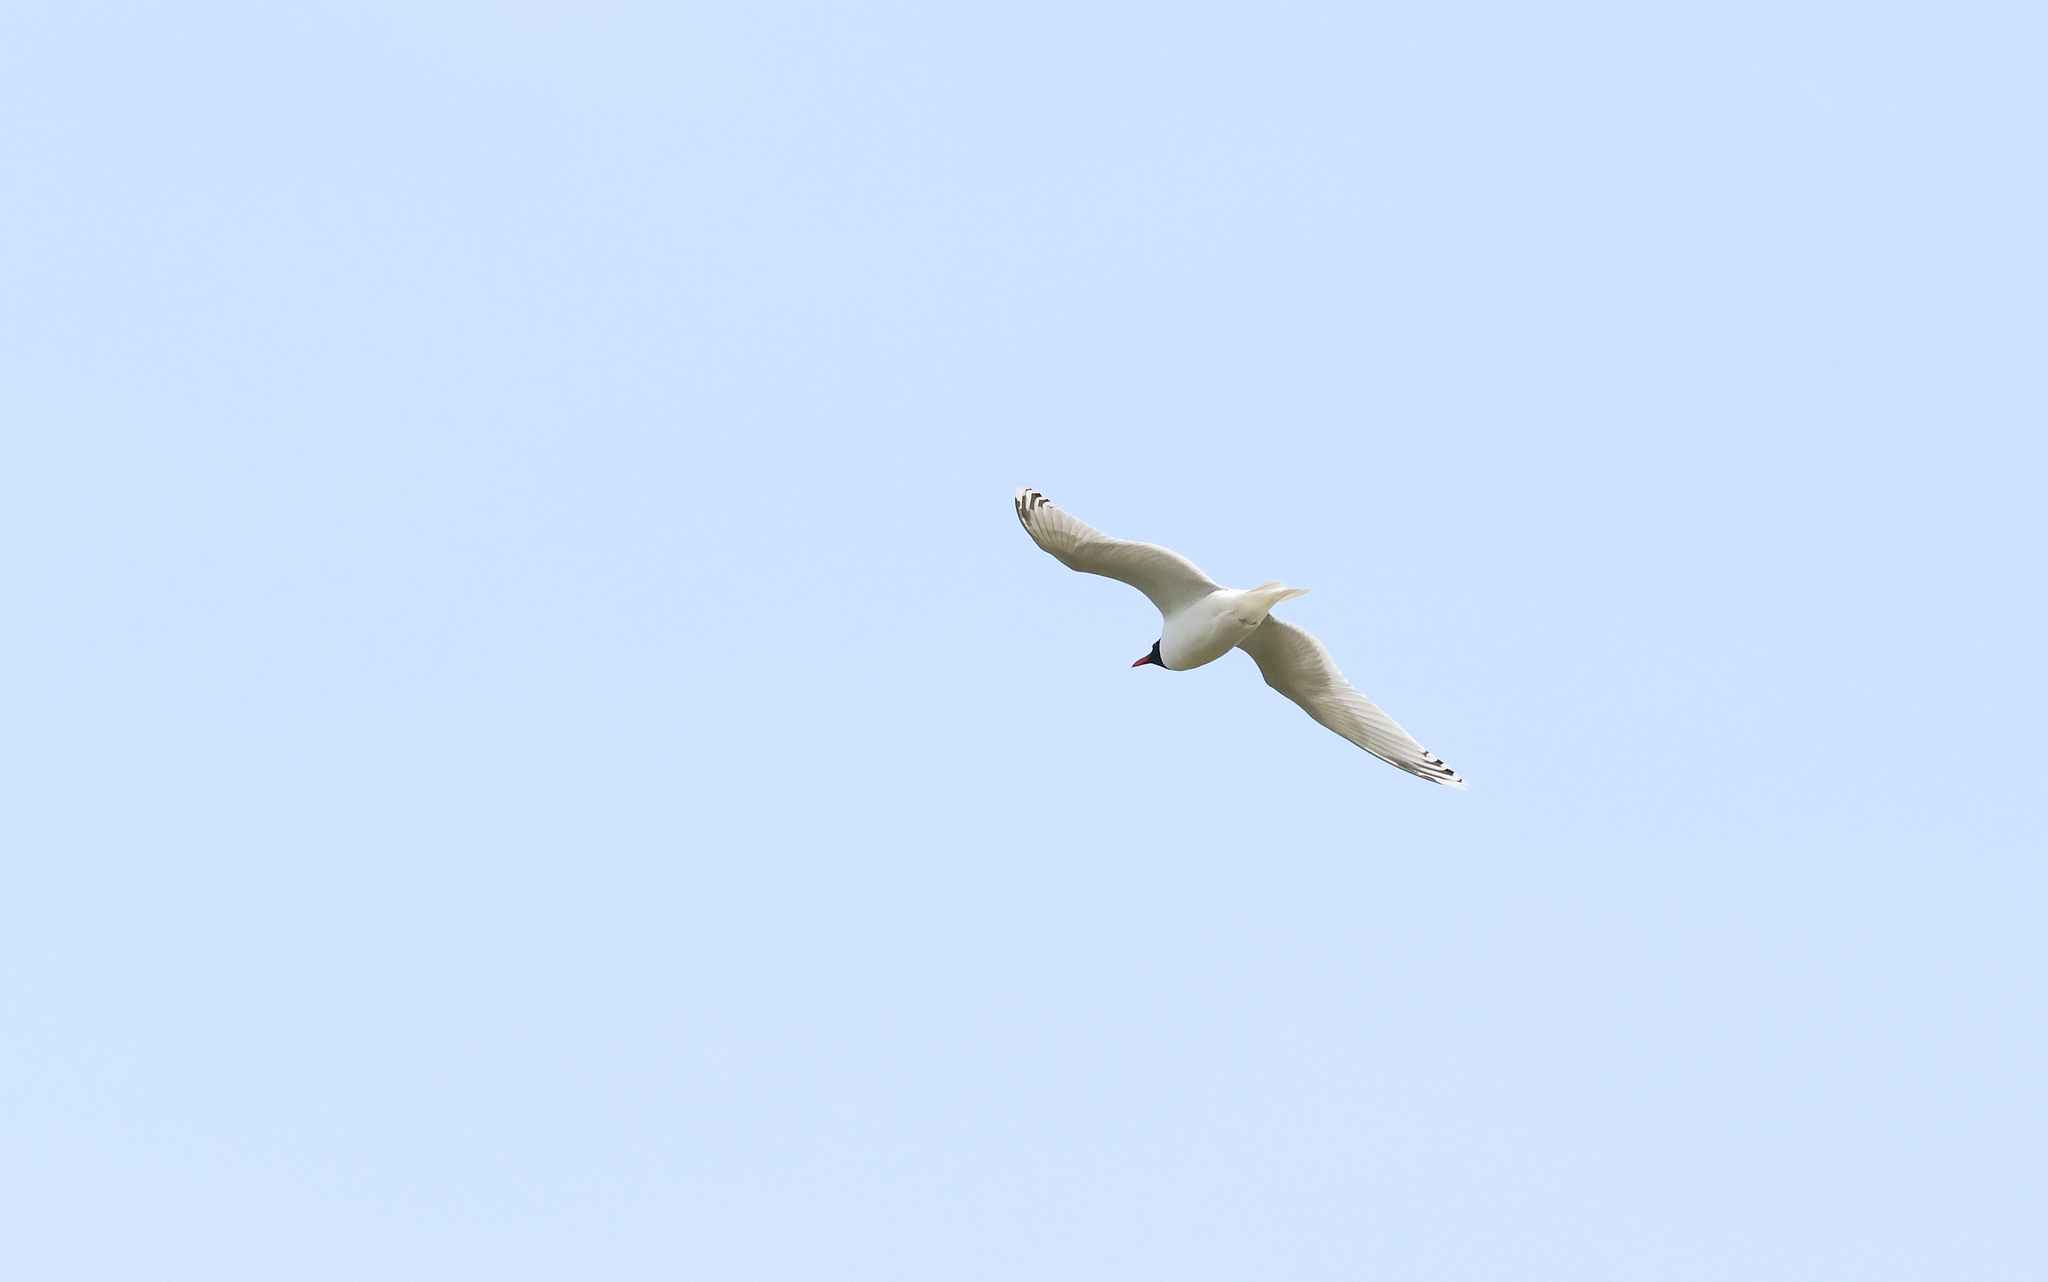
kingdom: Animalia
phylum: Chordata
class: Aves
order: Charadriiformes
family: Laridae
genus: Ichthyaetus
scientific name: Ichthyaetus melanocephalus
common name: Mediterranean gull
